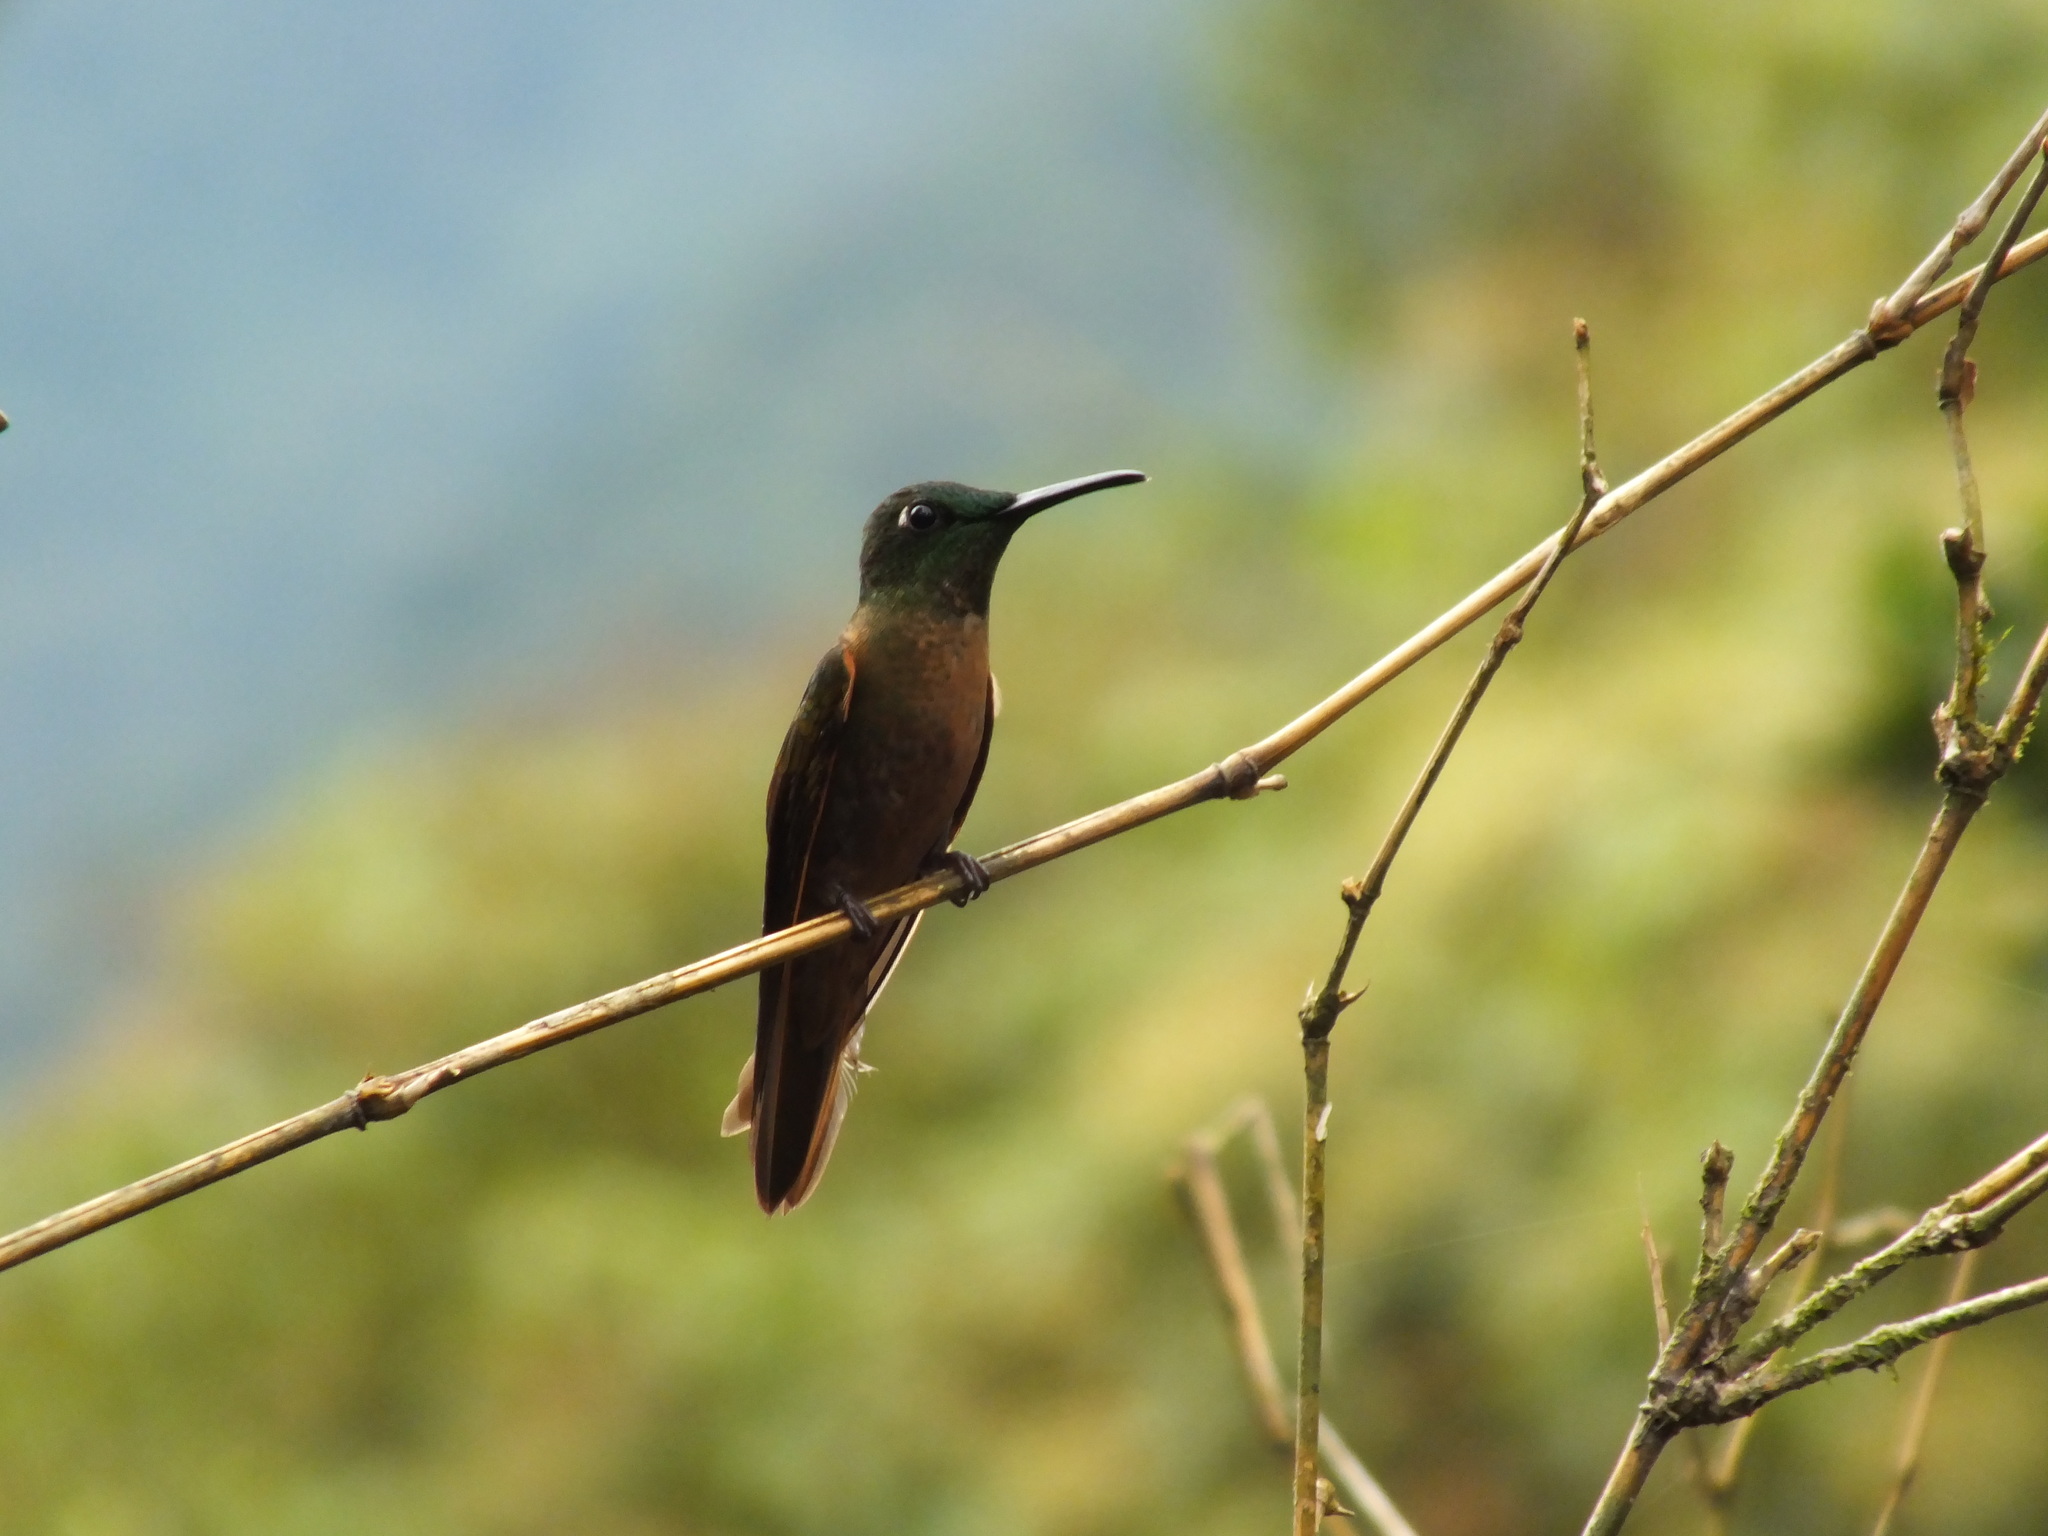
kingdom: Animalia
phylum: Chordata
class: Aves
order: Apodiformes
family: Trochilidae
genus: Heliodoxa
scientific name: Heliodoxa rubinoides
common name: Fawn-breasted brilliant
